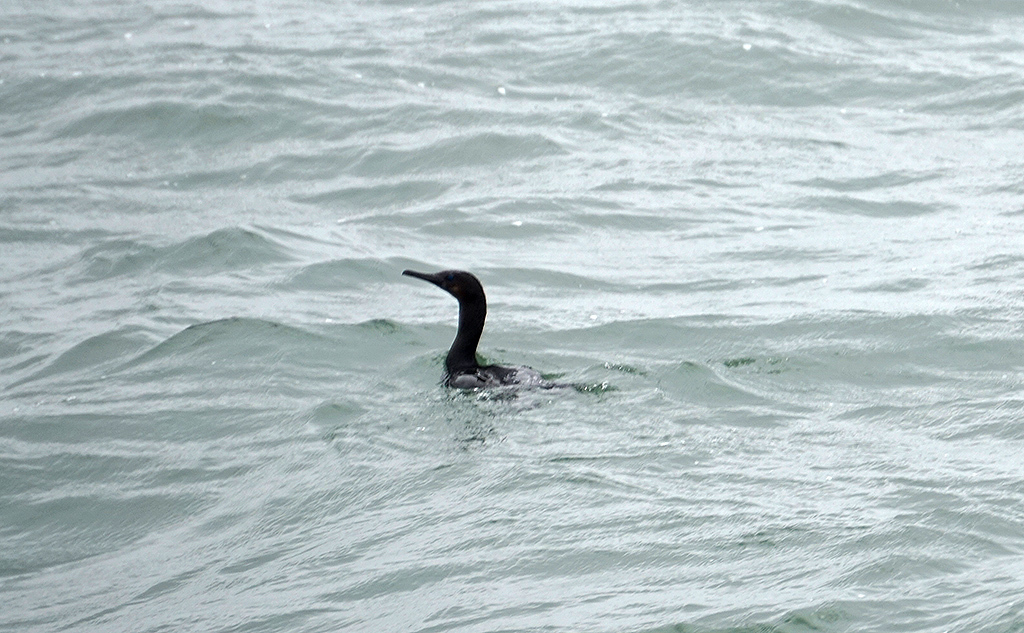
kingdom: Animalia
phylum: Chordata
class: Aves
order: Suliformes
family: Phalacrocoracidae
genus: Urile
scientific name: Urile penicillatus
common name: Brandt's cormorant
